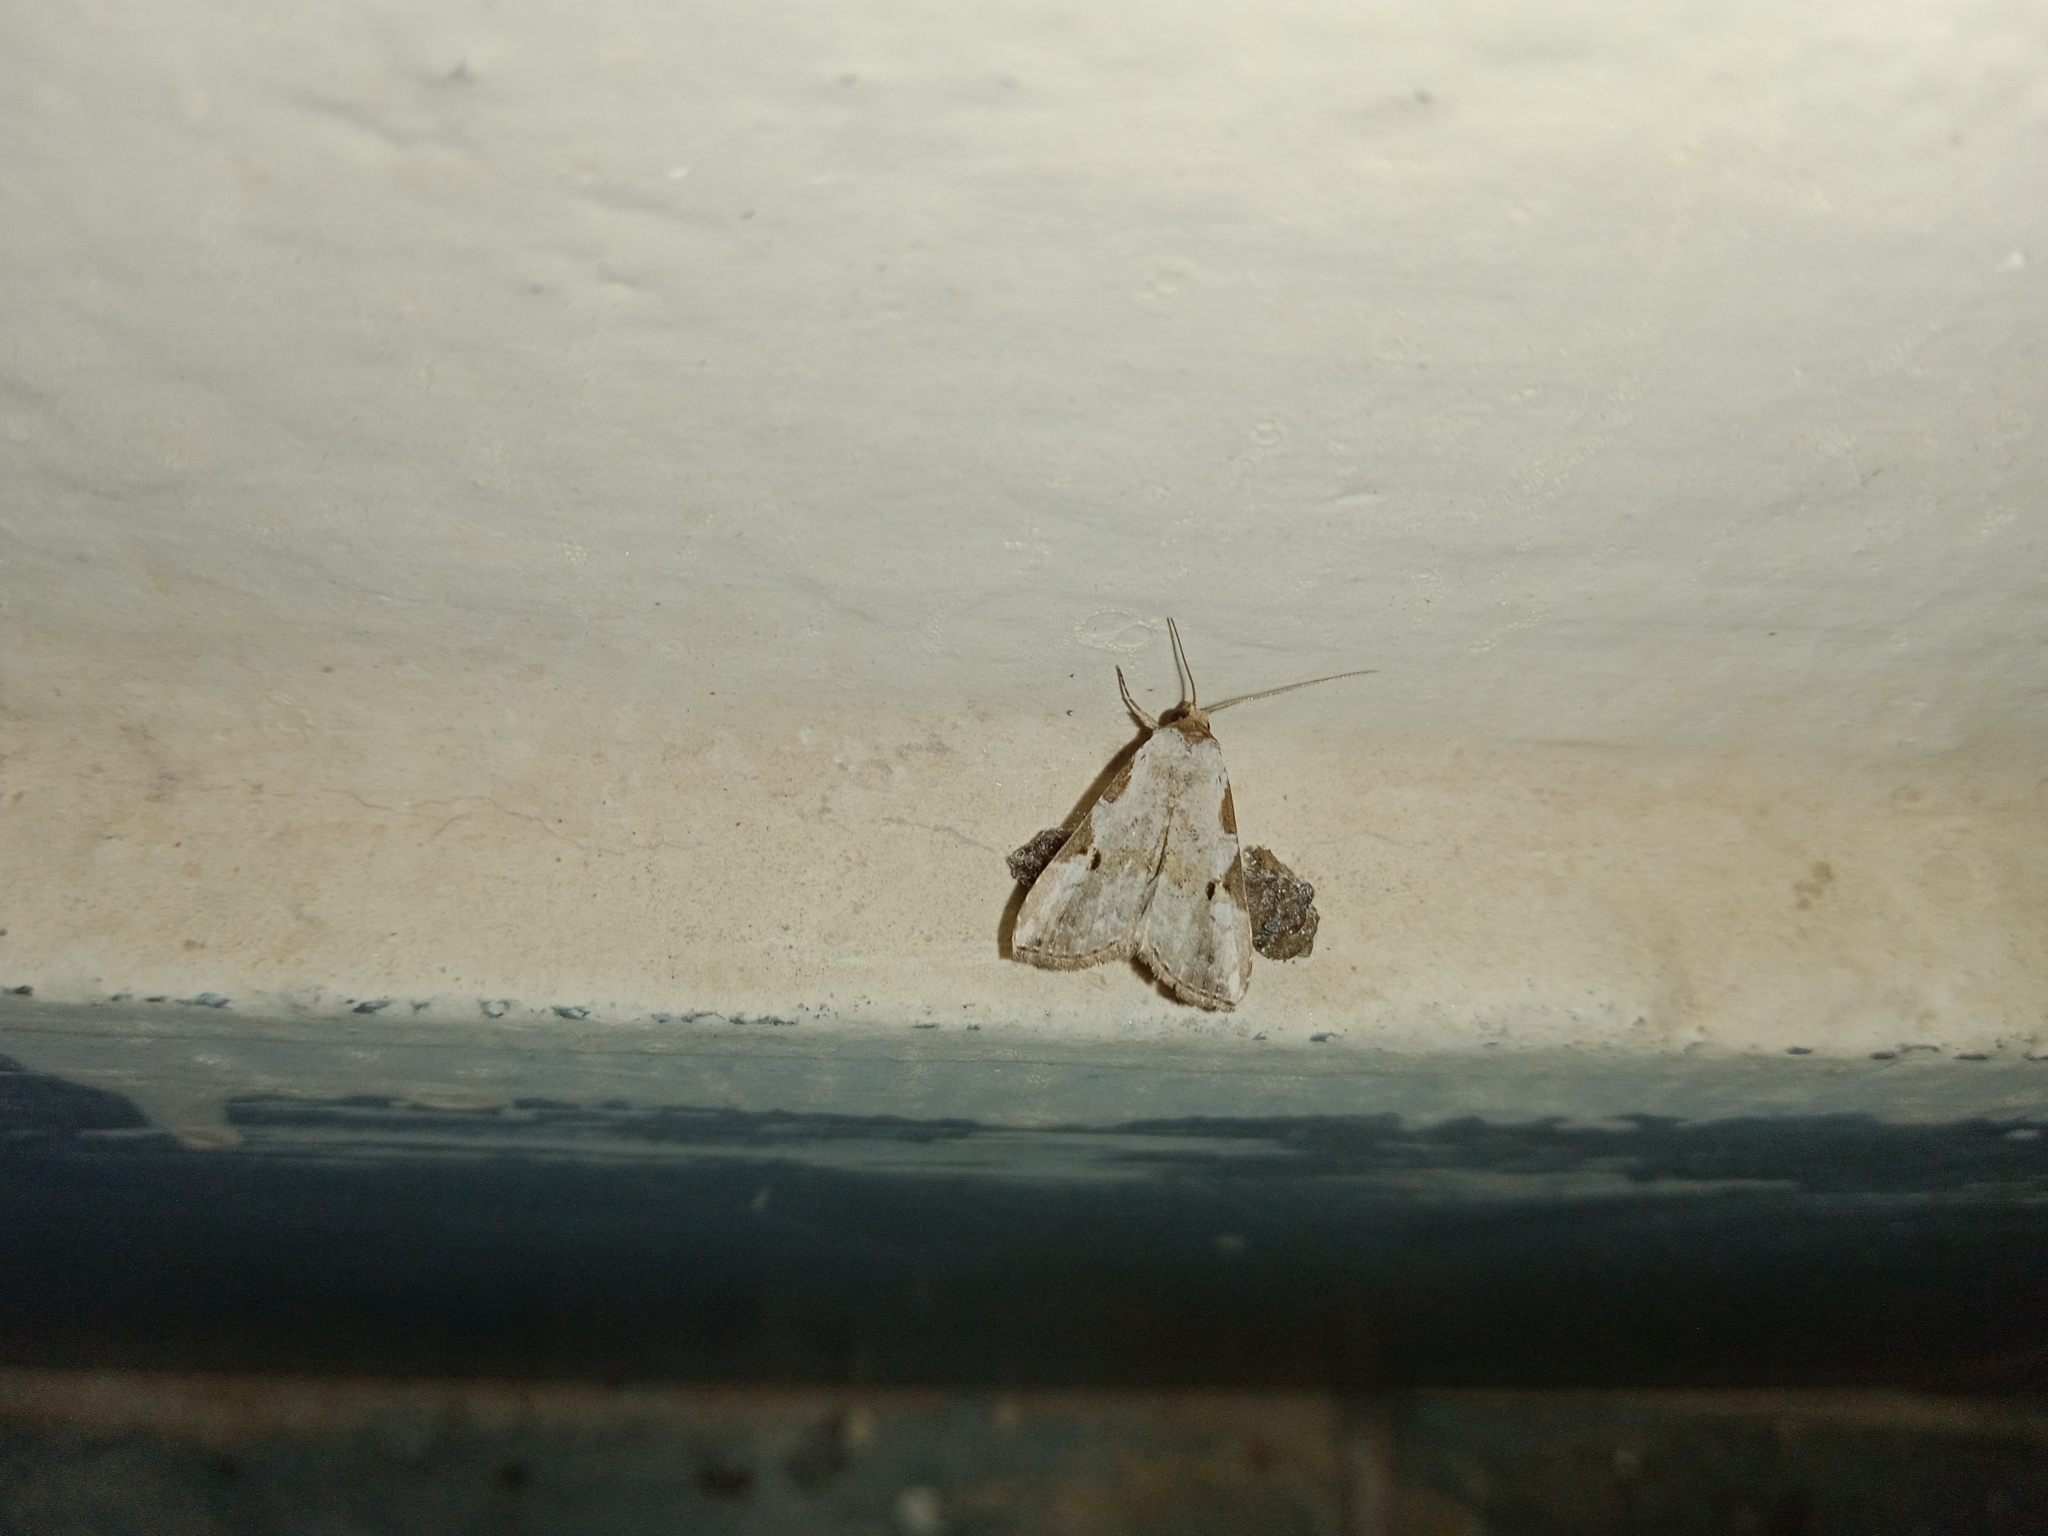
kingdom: Animalia
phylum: Arthropoda
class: Insecta
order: Lepidoptera
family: Erebidae
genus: Chorsia
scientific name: Chorsia
